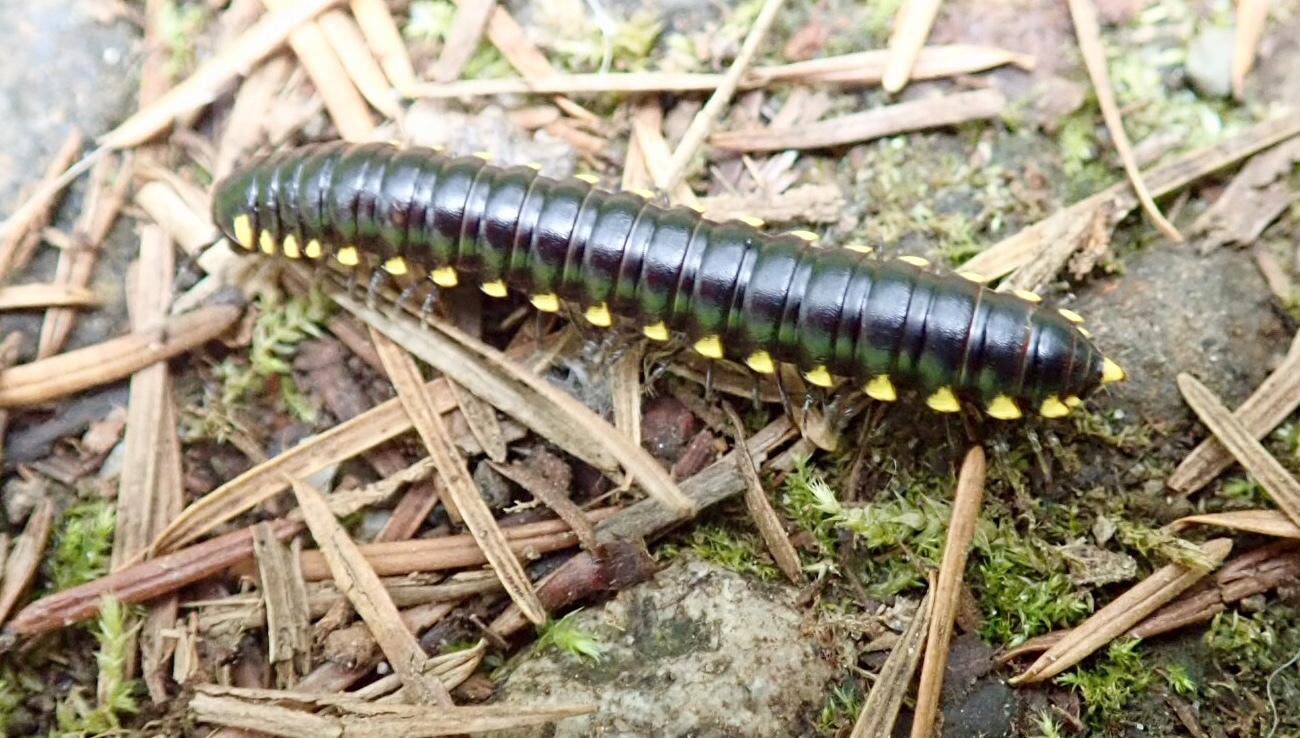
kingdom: Animalia
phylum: Arthropoda
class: Diplopoda
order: Polydesmida
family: Xystodesmidae
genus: Harpaphe
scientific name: Harpaphe haydeniana
